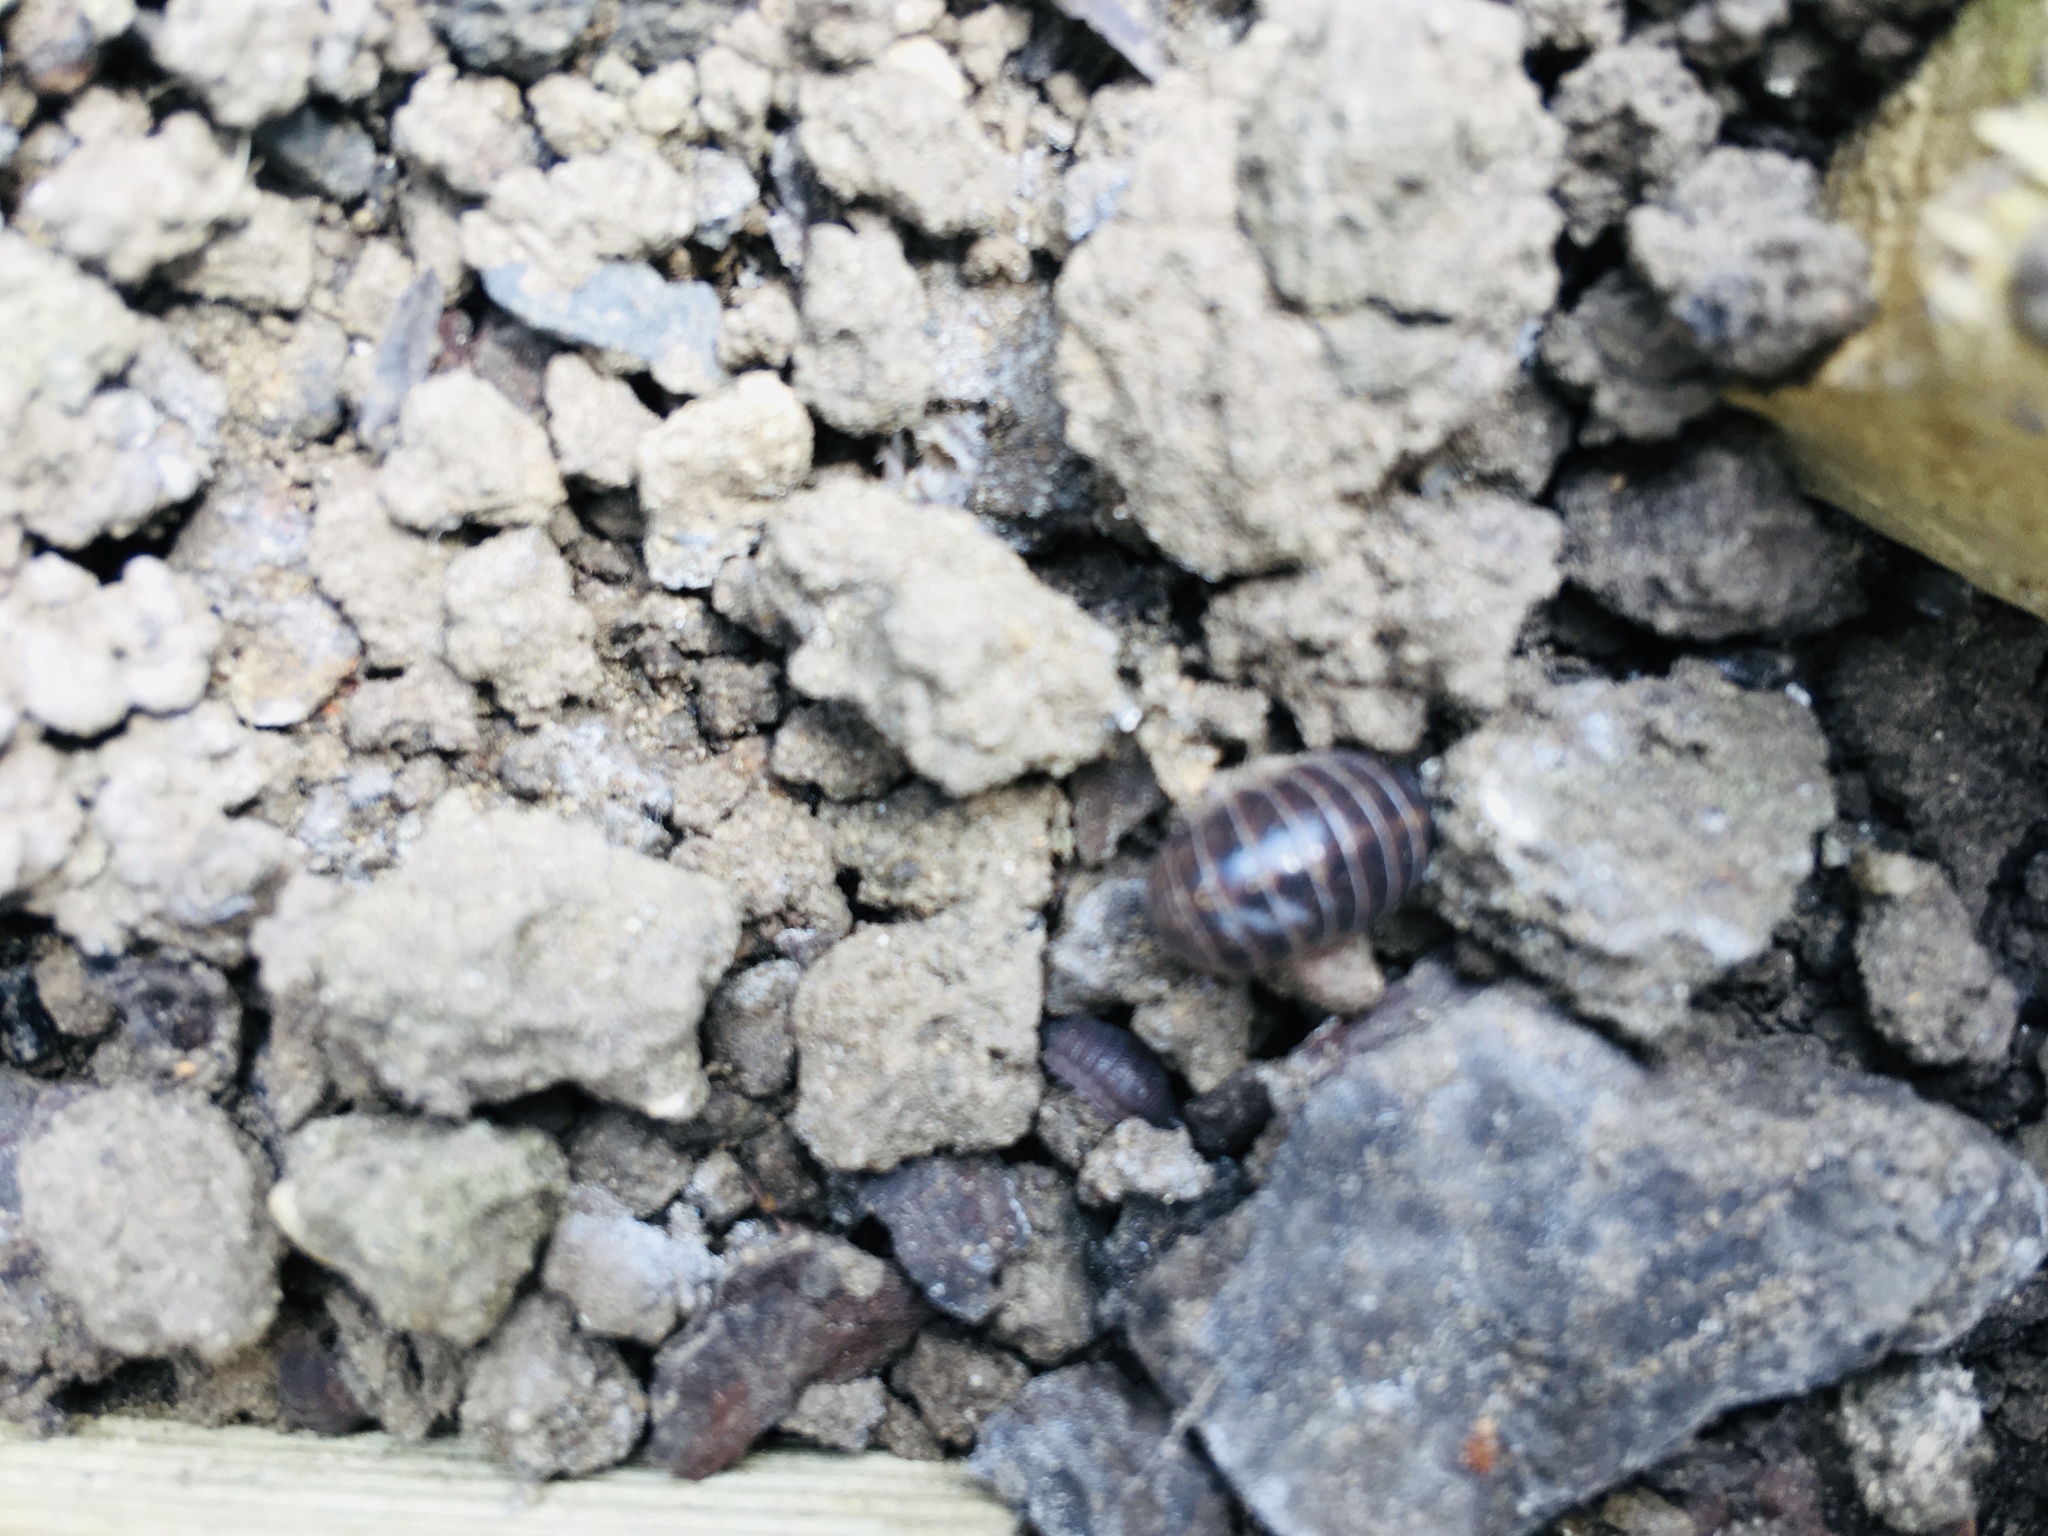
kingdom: Animalia
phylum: Arthropoda
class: Malacostraca
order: Isopoda
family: Armadillidiidae
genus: Armadillidium
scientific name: Armadillidium vulgare
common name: Common pill woodlouse
